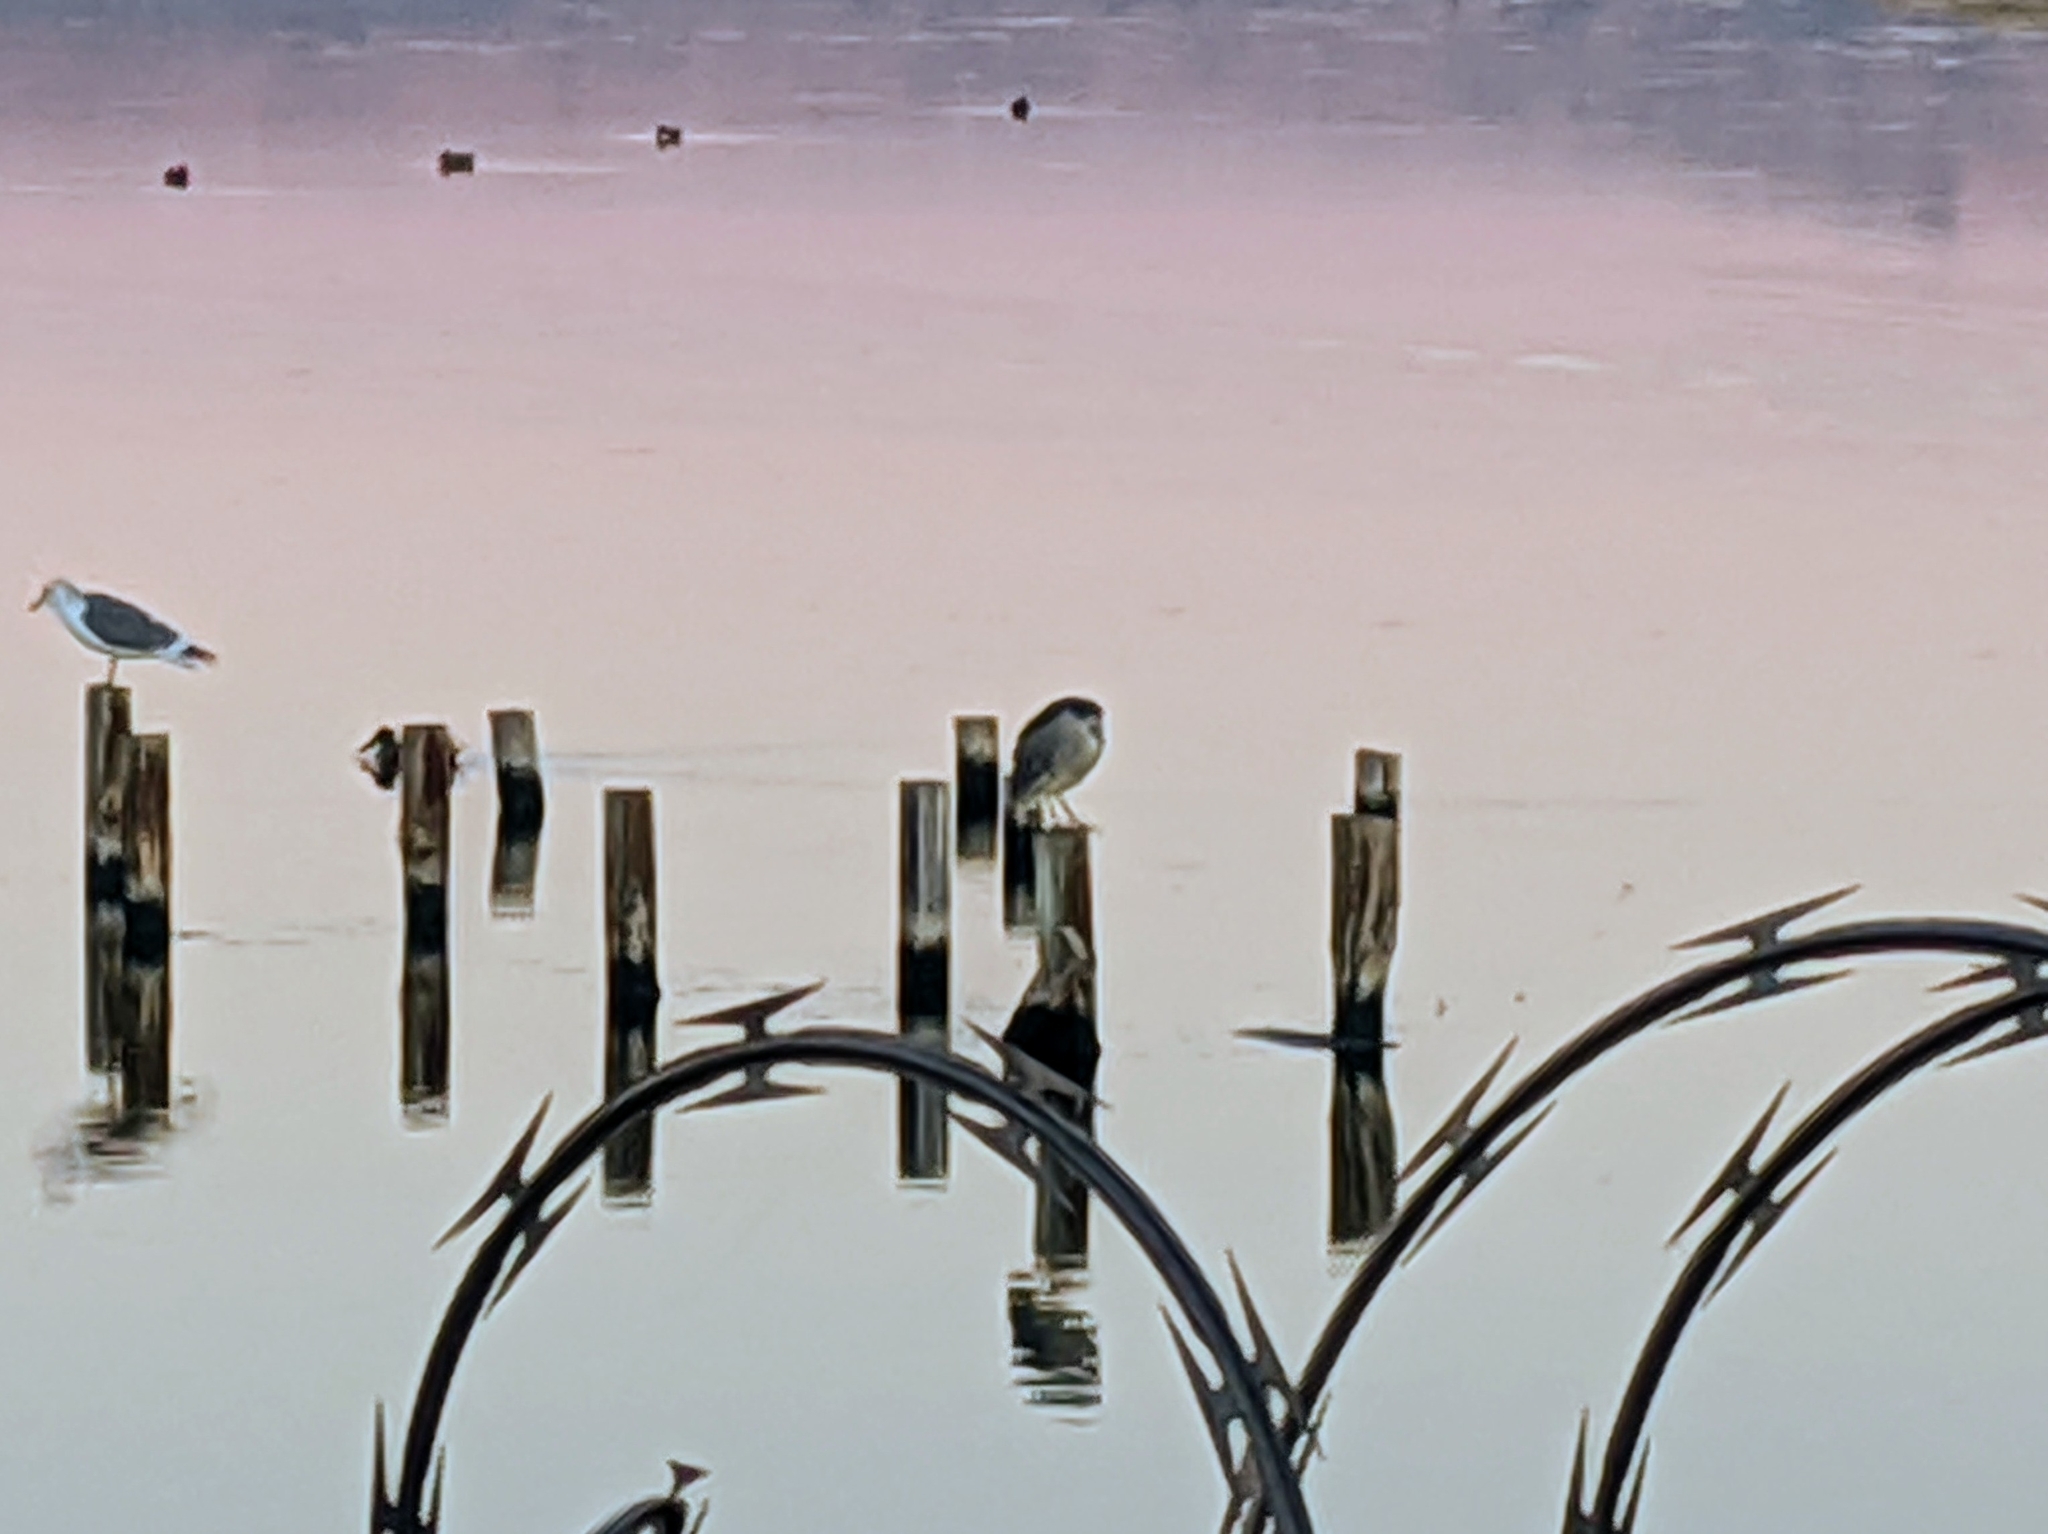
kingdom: Animalia
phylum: Chordata
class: Aves
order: Pelecaniformes
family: Ardeidae
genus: Nycticorax
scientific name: Nycticorax nycticorax
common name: Black-crowned night heron
